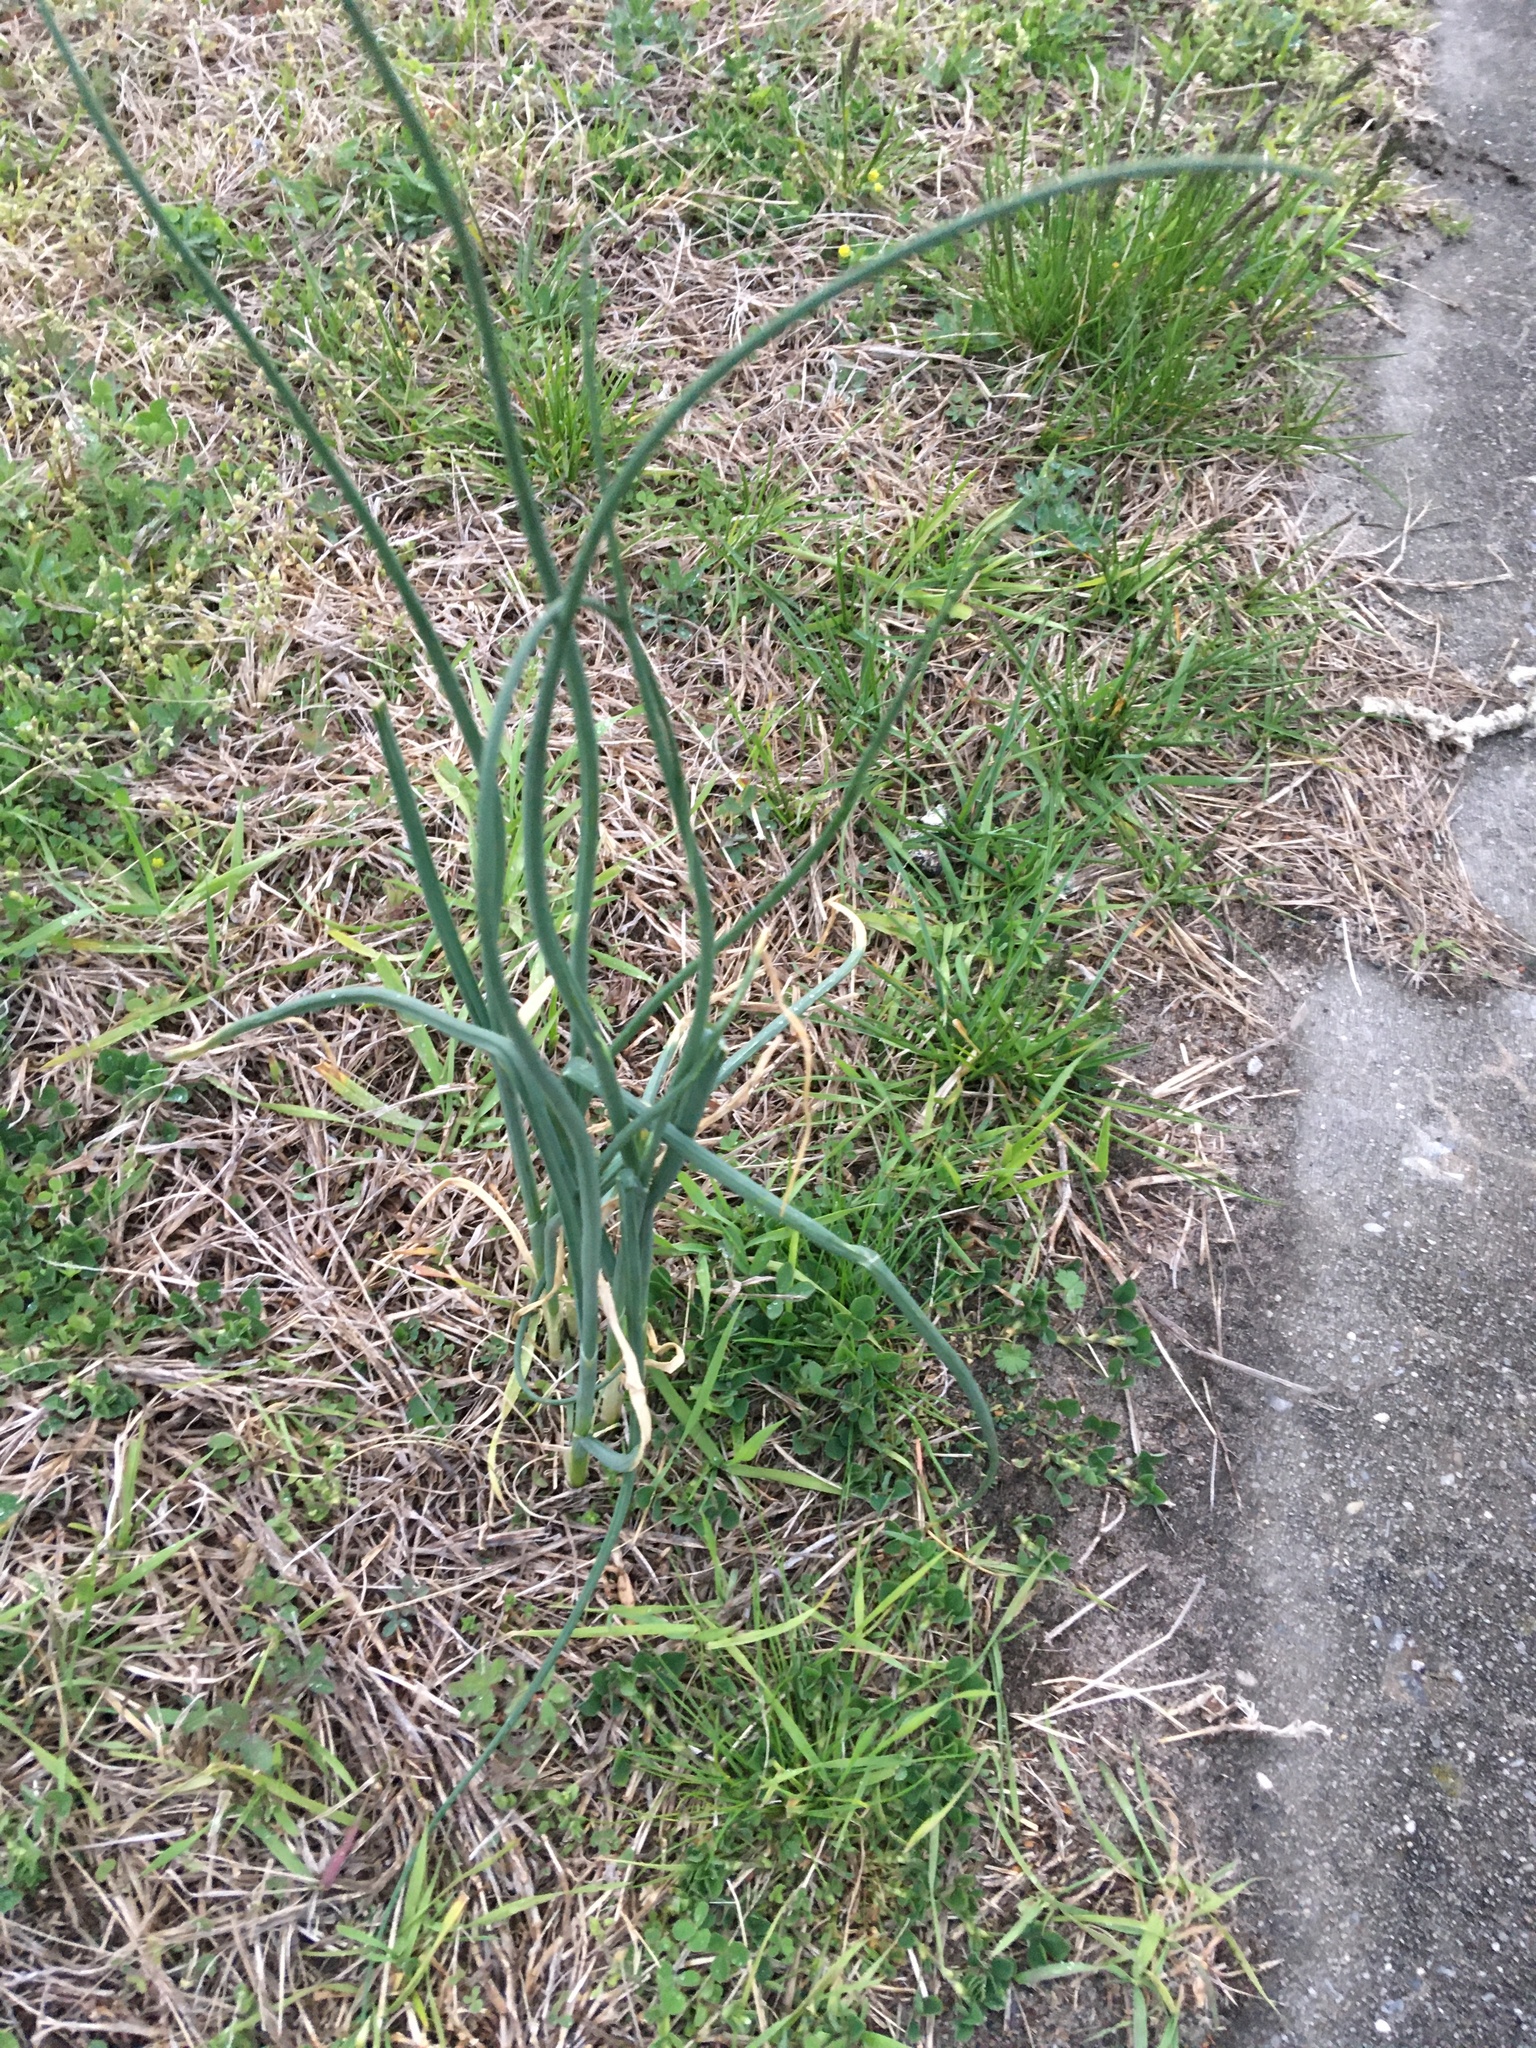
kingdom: Plantae
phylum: Tracheophyta
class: Liliopsida
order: Asparagales
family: Amaryllidaceae
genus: Allium
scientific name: Allium vineale
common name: Crow garlic
